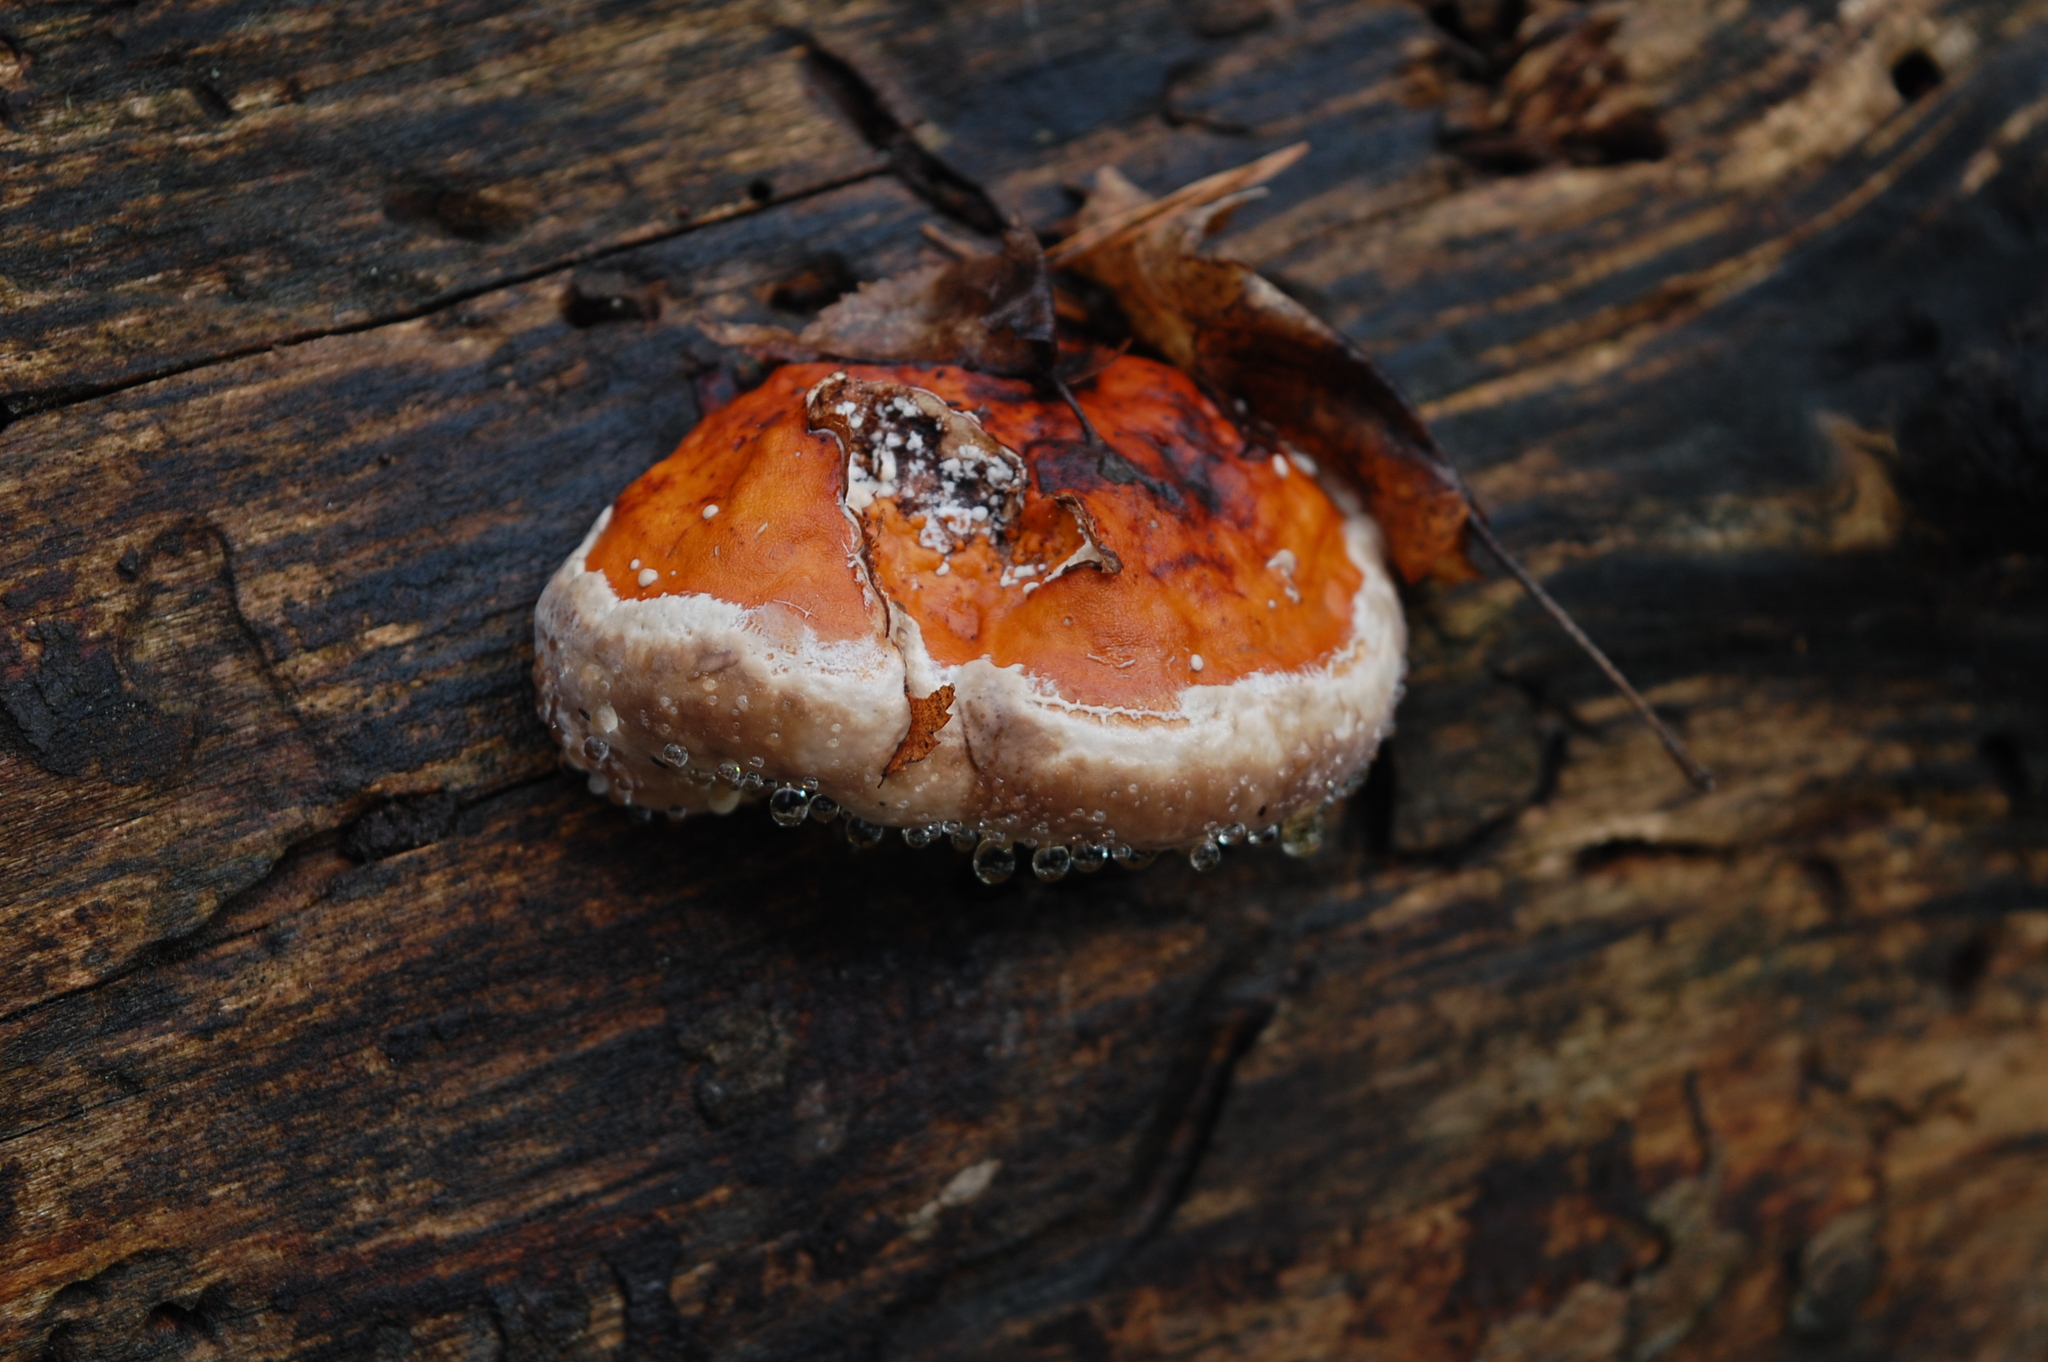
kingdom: Fungi
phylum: Basidiomycota
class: Agaricomycetes
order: Polyporales
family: Fomitopsidaceae
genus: Fomitopsis
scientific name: Fomitopsis pinicola
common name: Red-belted bracket
